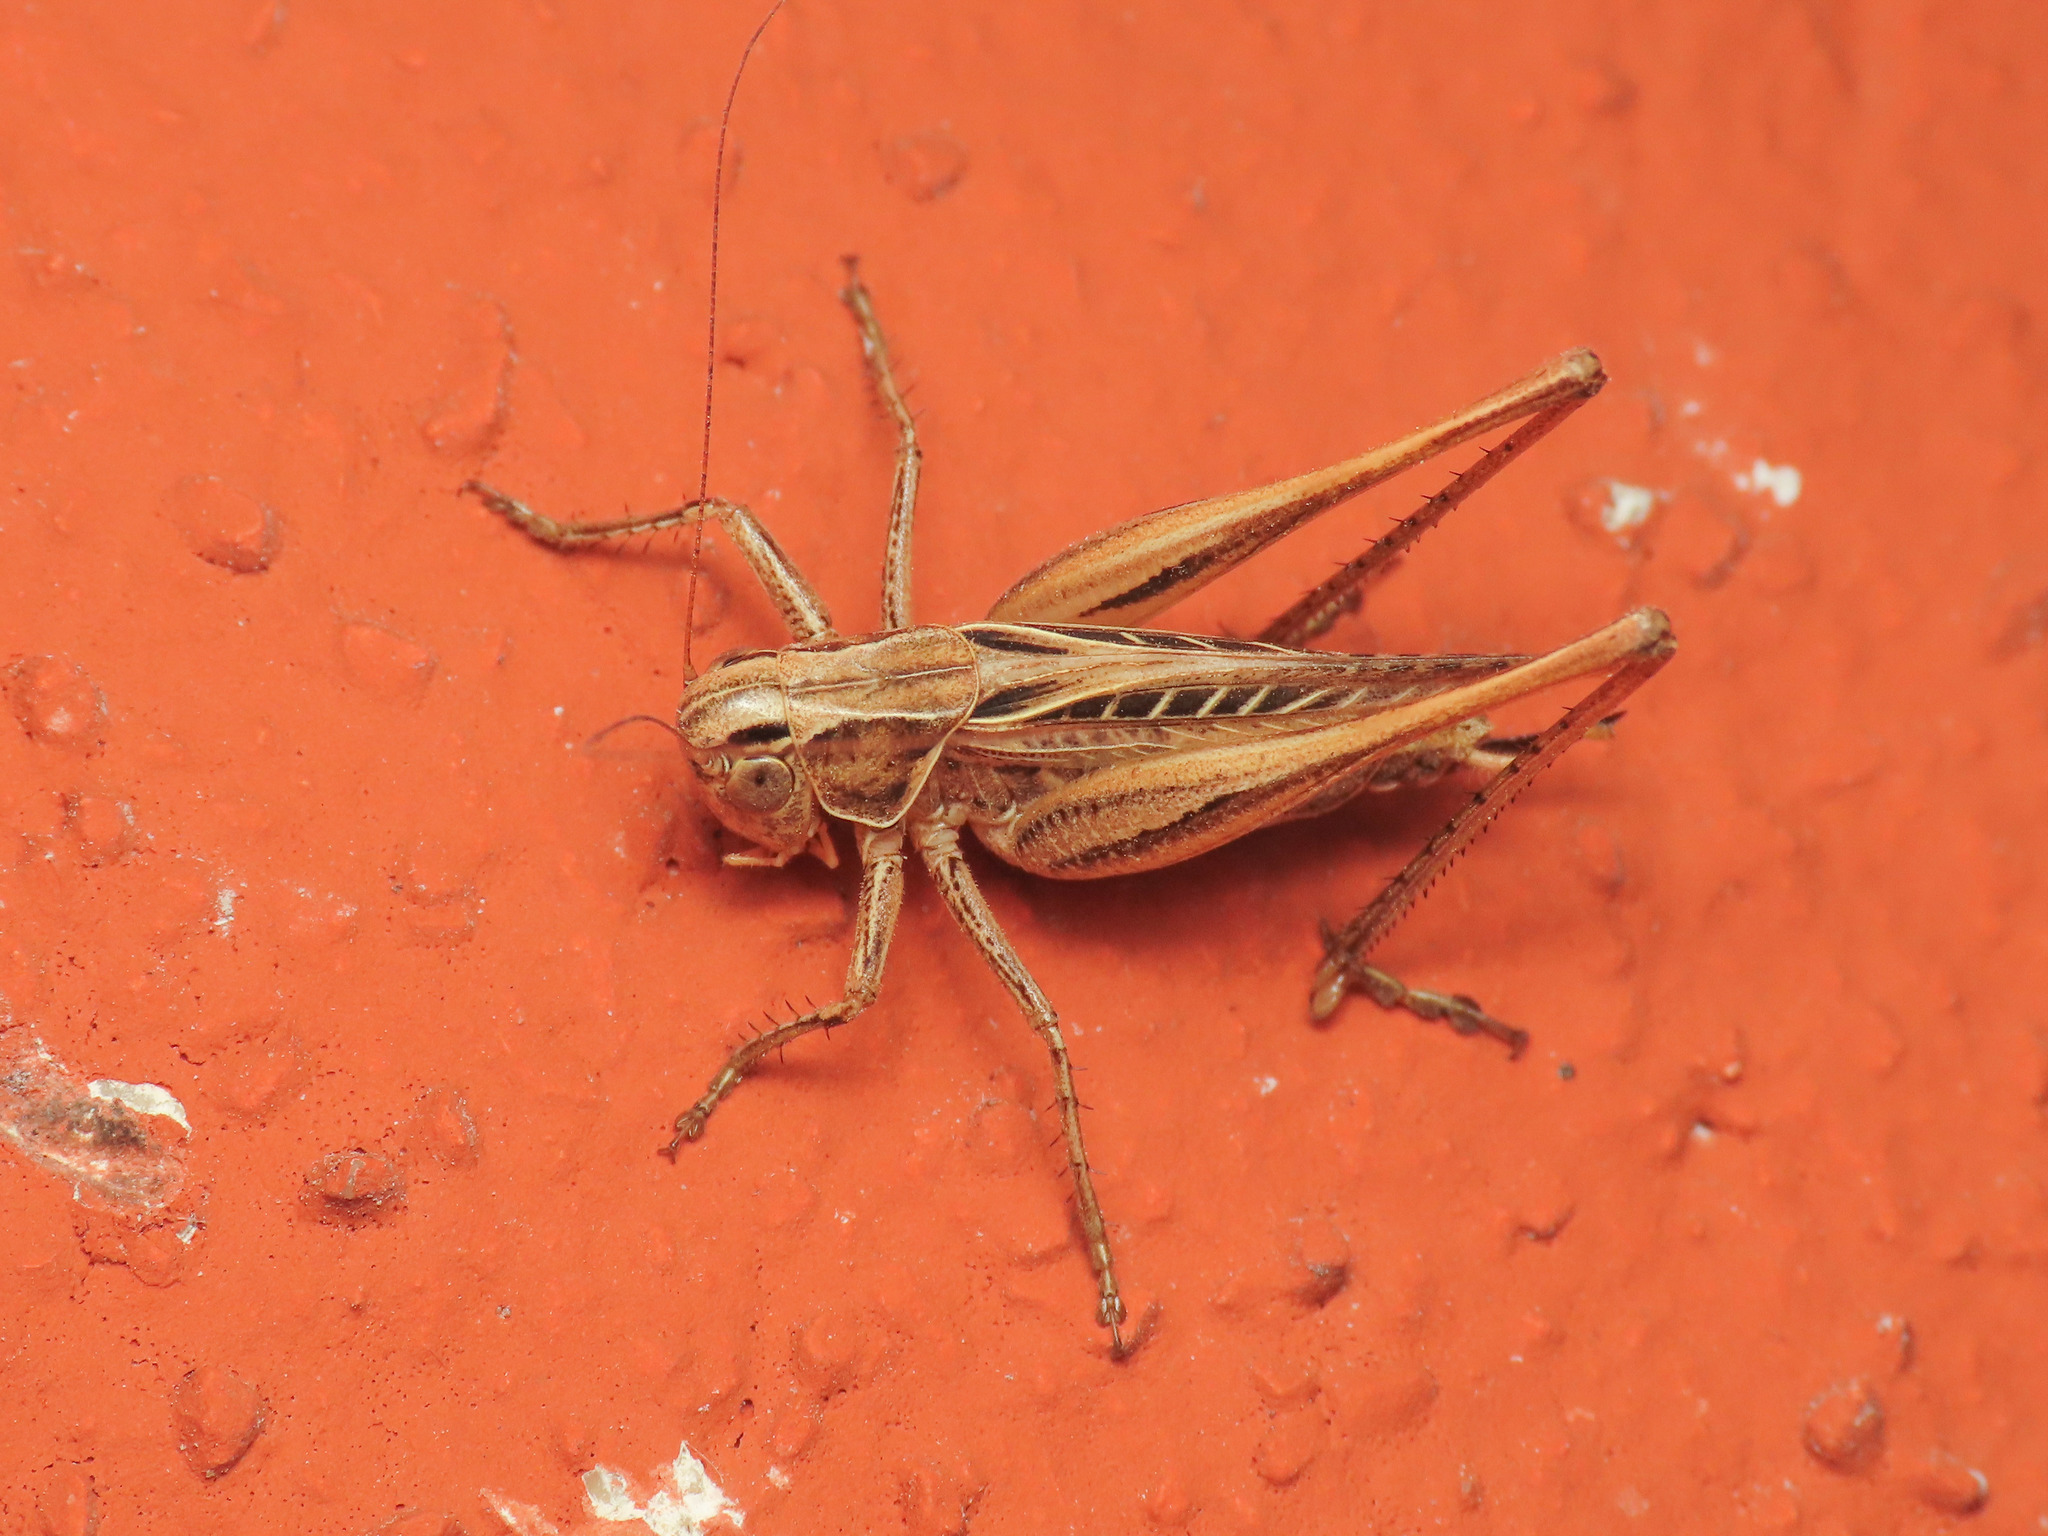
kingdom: Animalia
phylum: Arthropoda
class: Insecta
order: Orthoptera
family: Tettigoniidae
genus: Tessellana
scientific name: Tessellana tessellata
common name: Grasshopper
